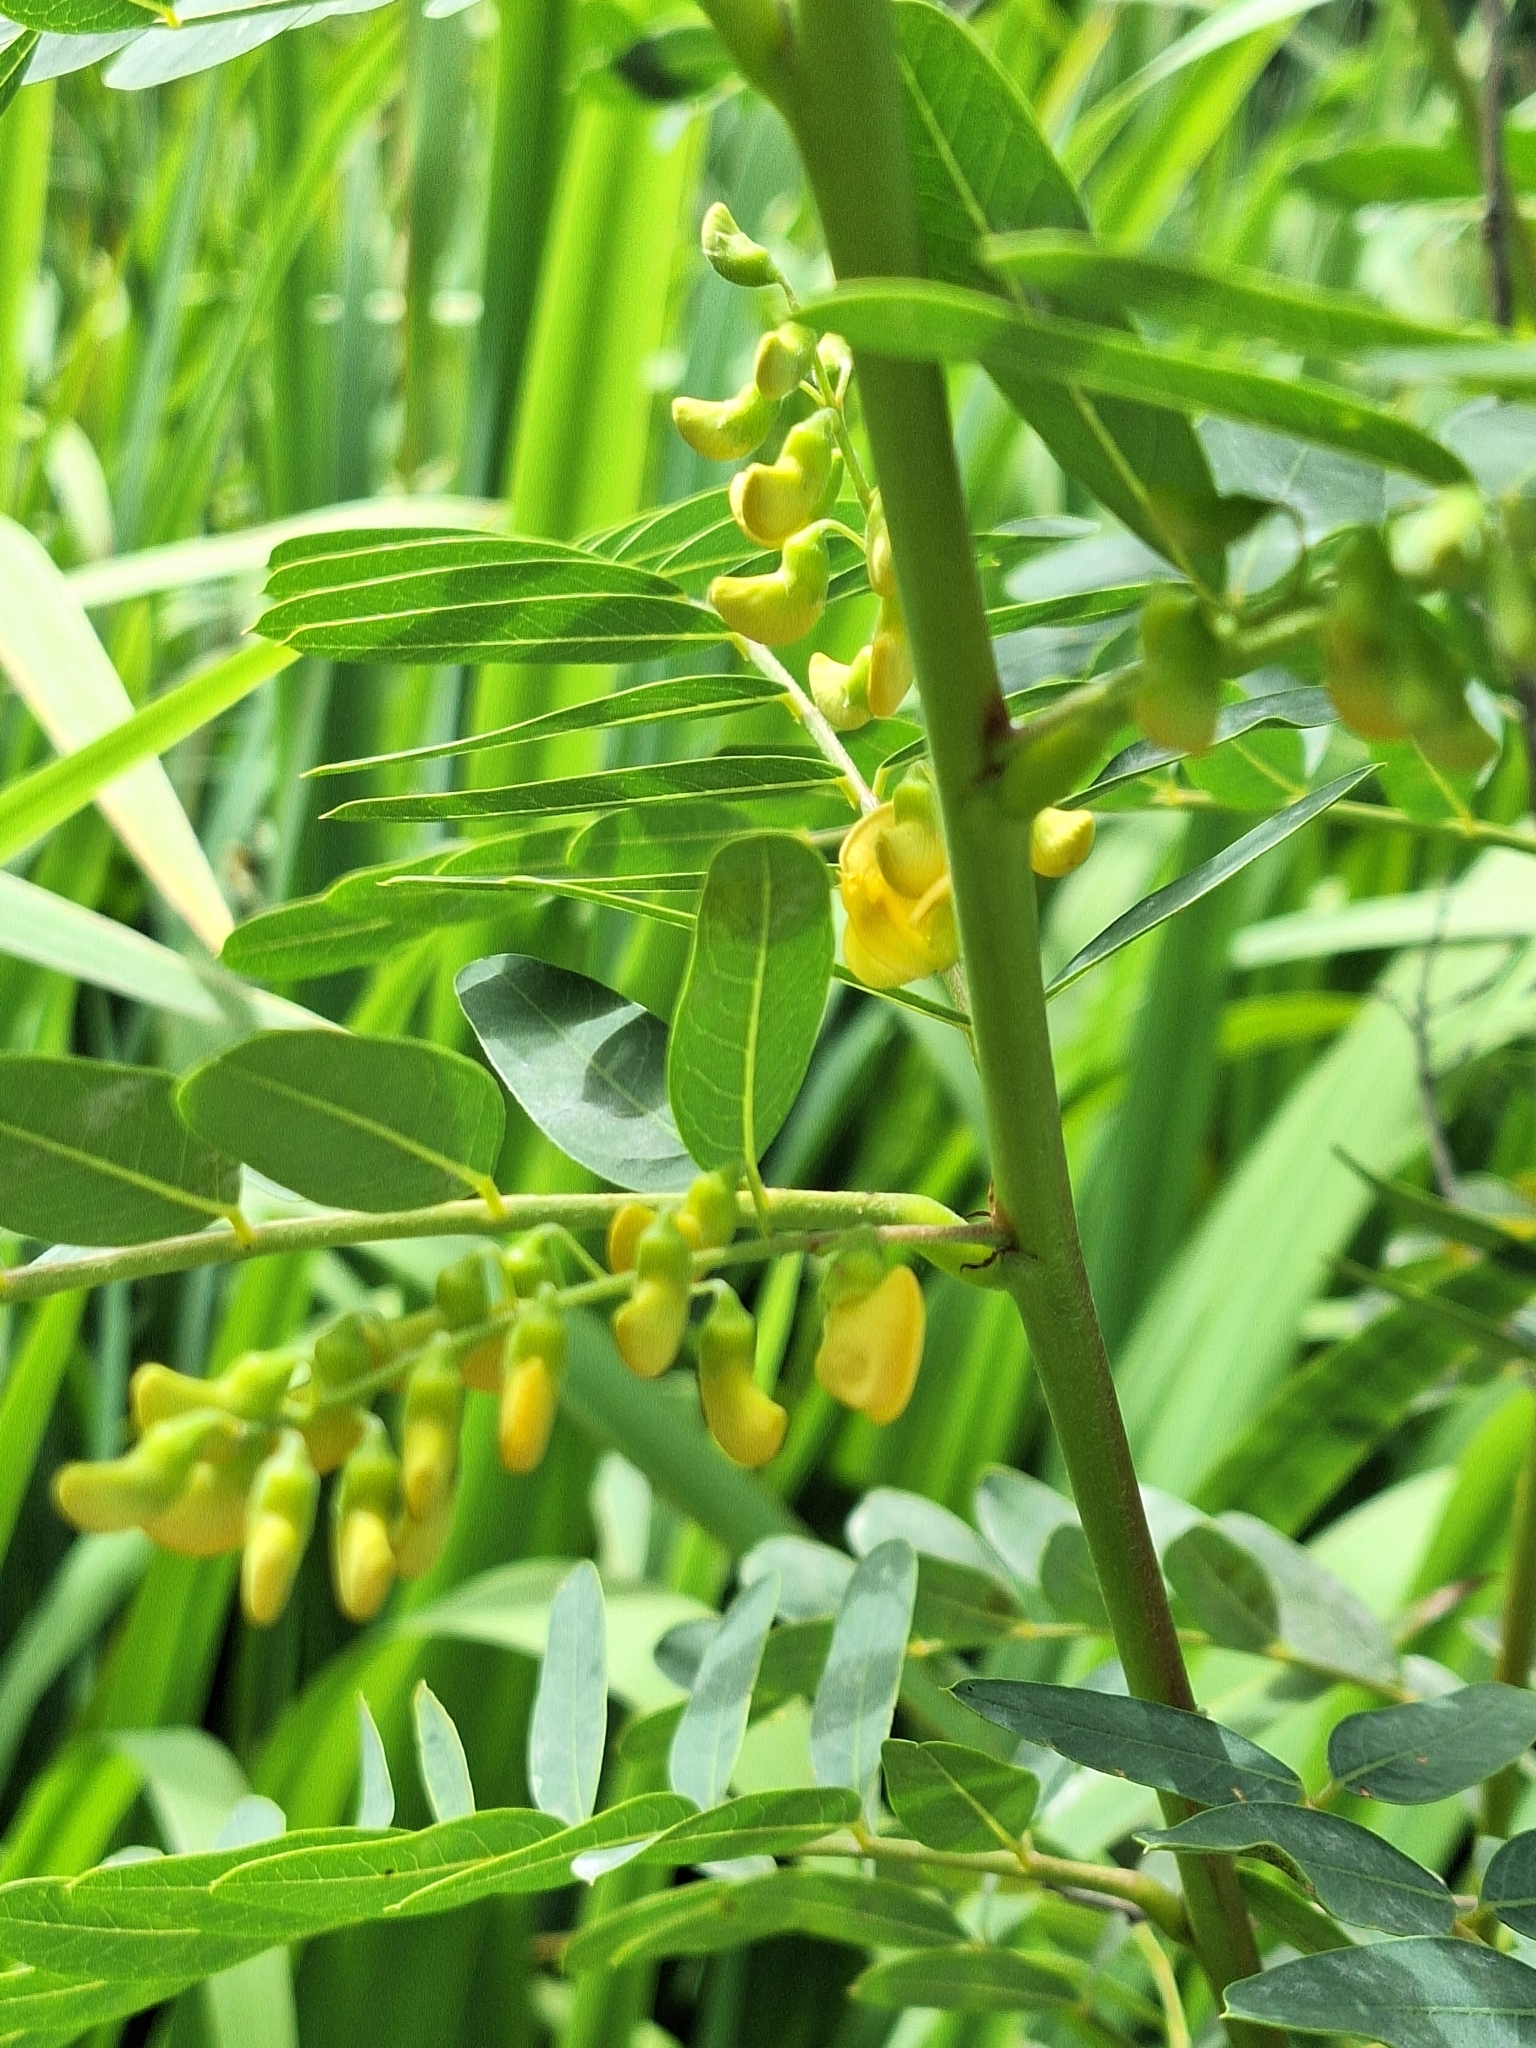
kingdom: Plantae
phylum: Tracheophyta
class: Magnoliopsida
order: Fabales
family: Fabaceae
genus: Sesbania
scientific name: Sesbania virgata
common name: Wand riverhemp
